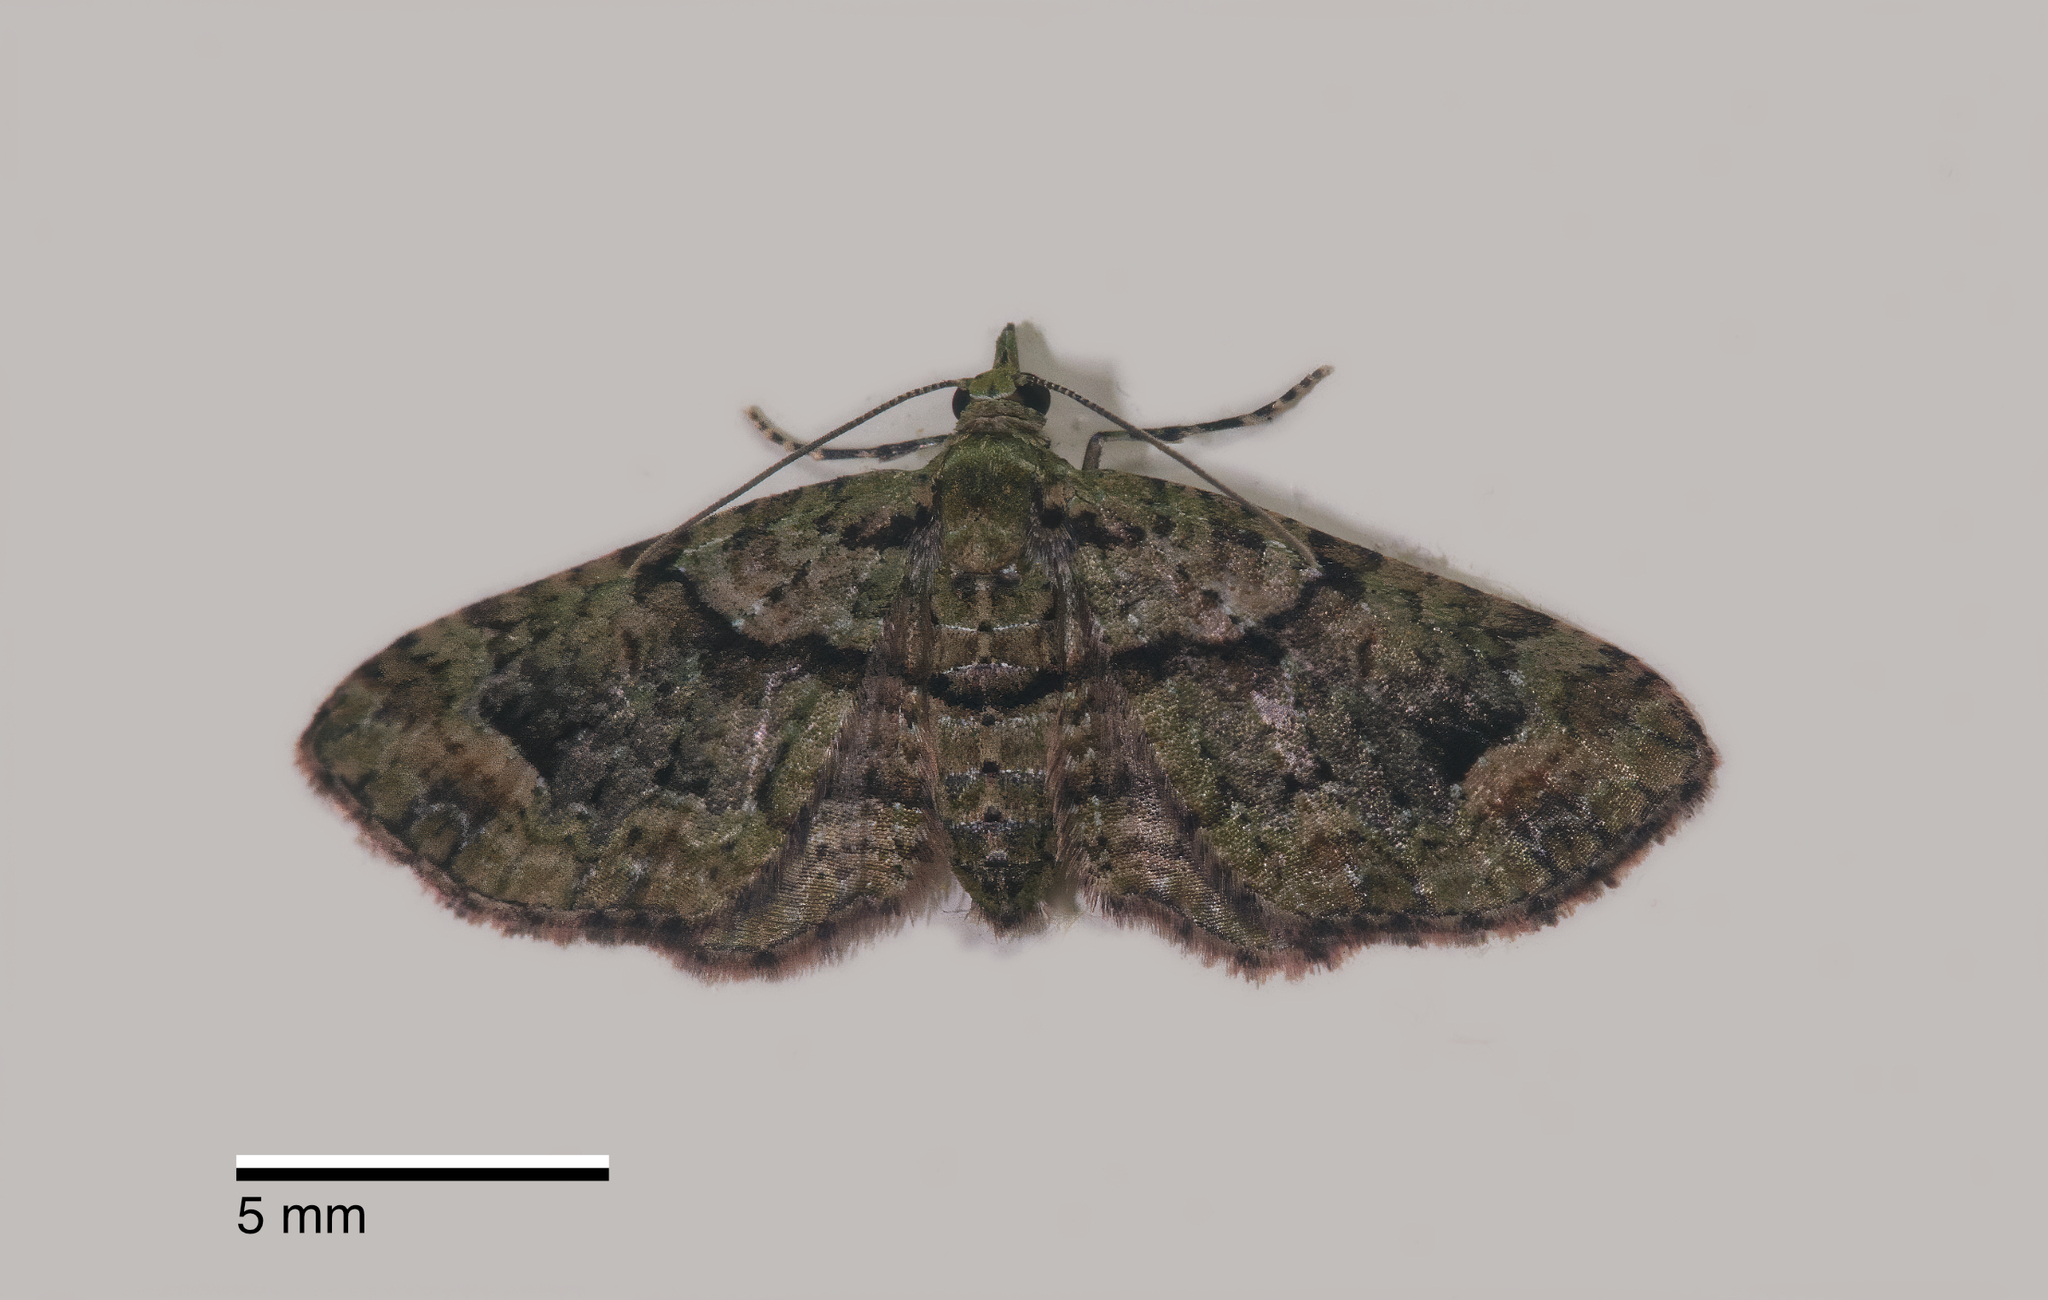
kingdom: Animalia
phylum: Arthropoda
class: Insecta
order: Lepidoptera
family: Geometridae
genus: Idaea
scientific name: Idaea mutanda
